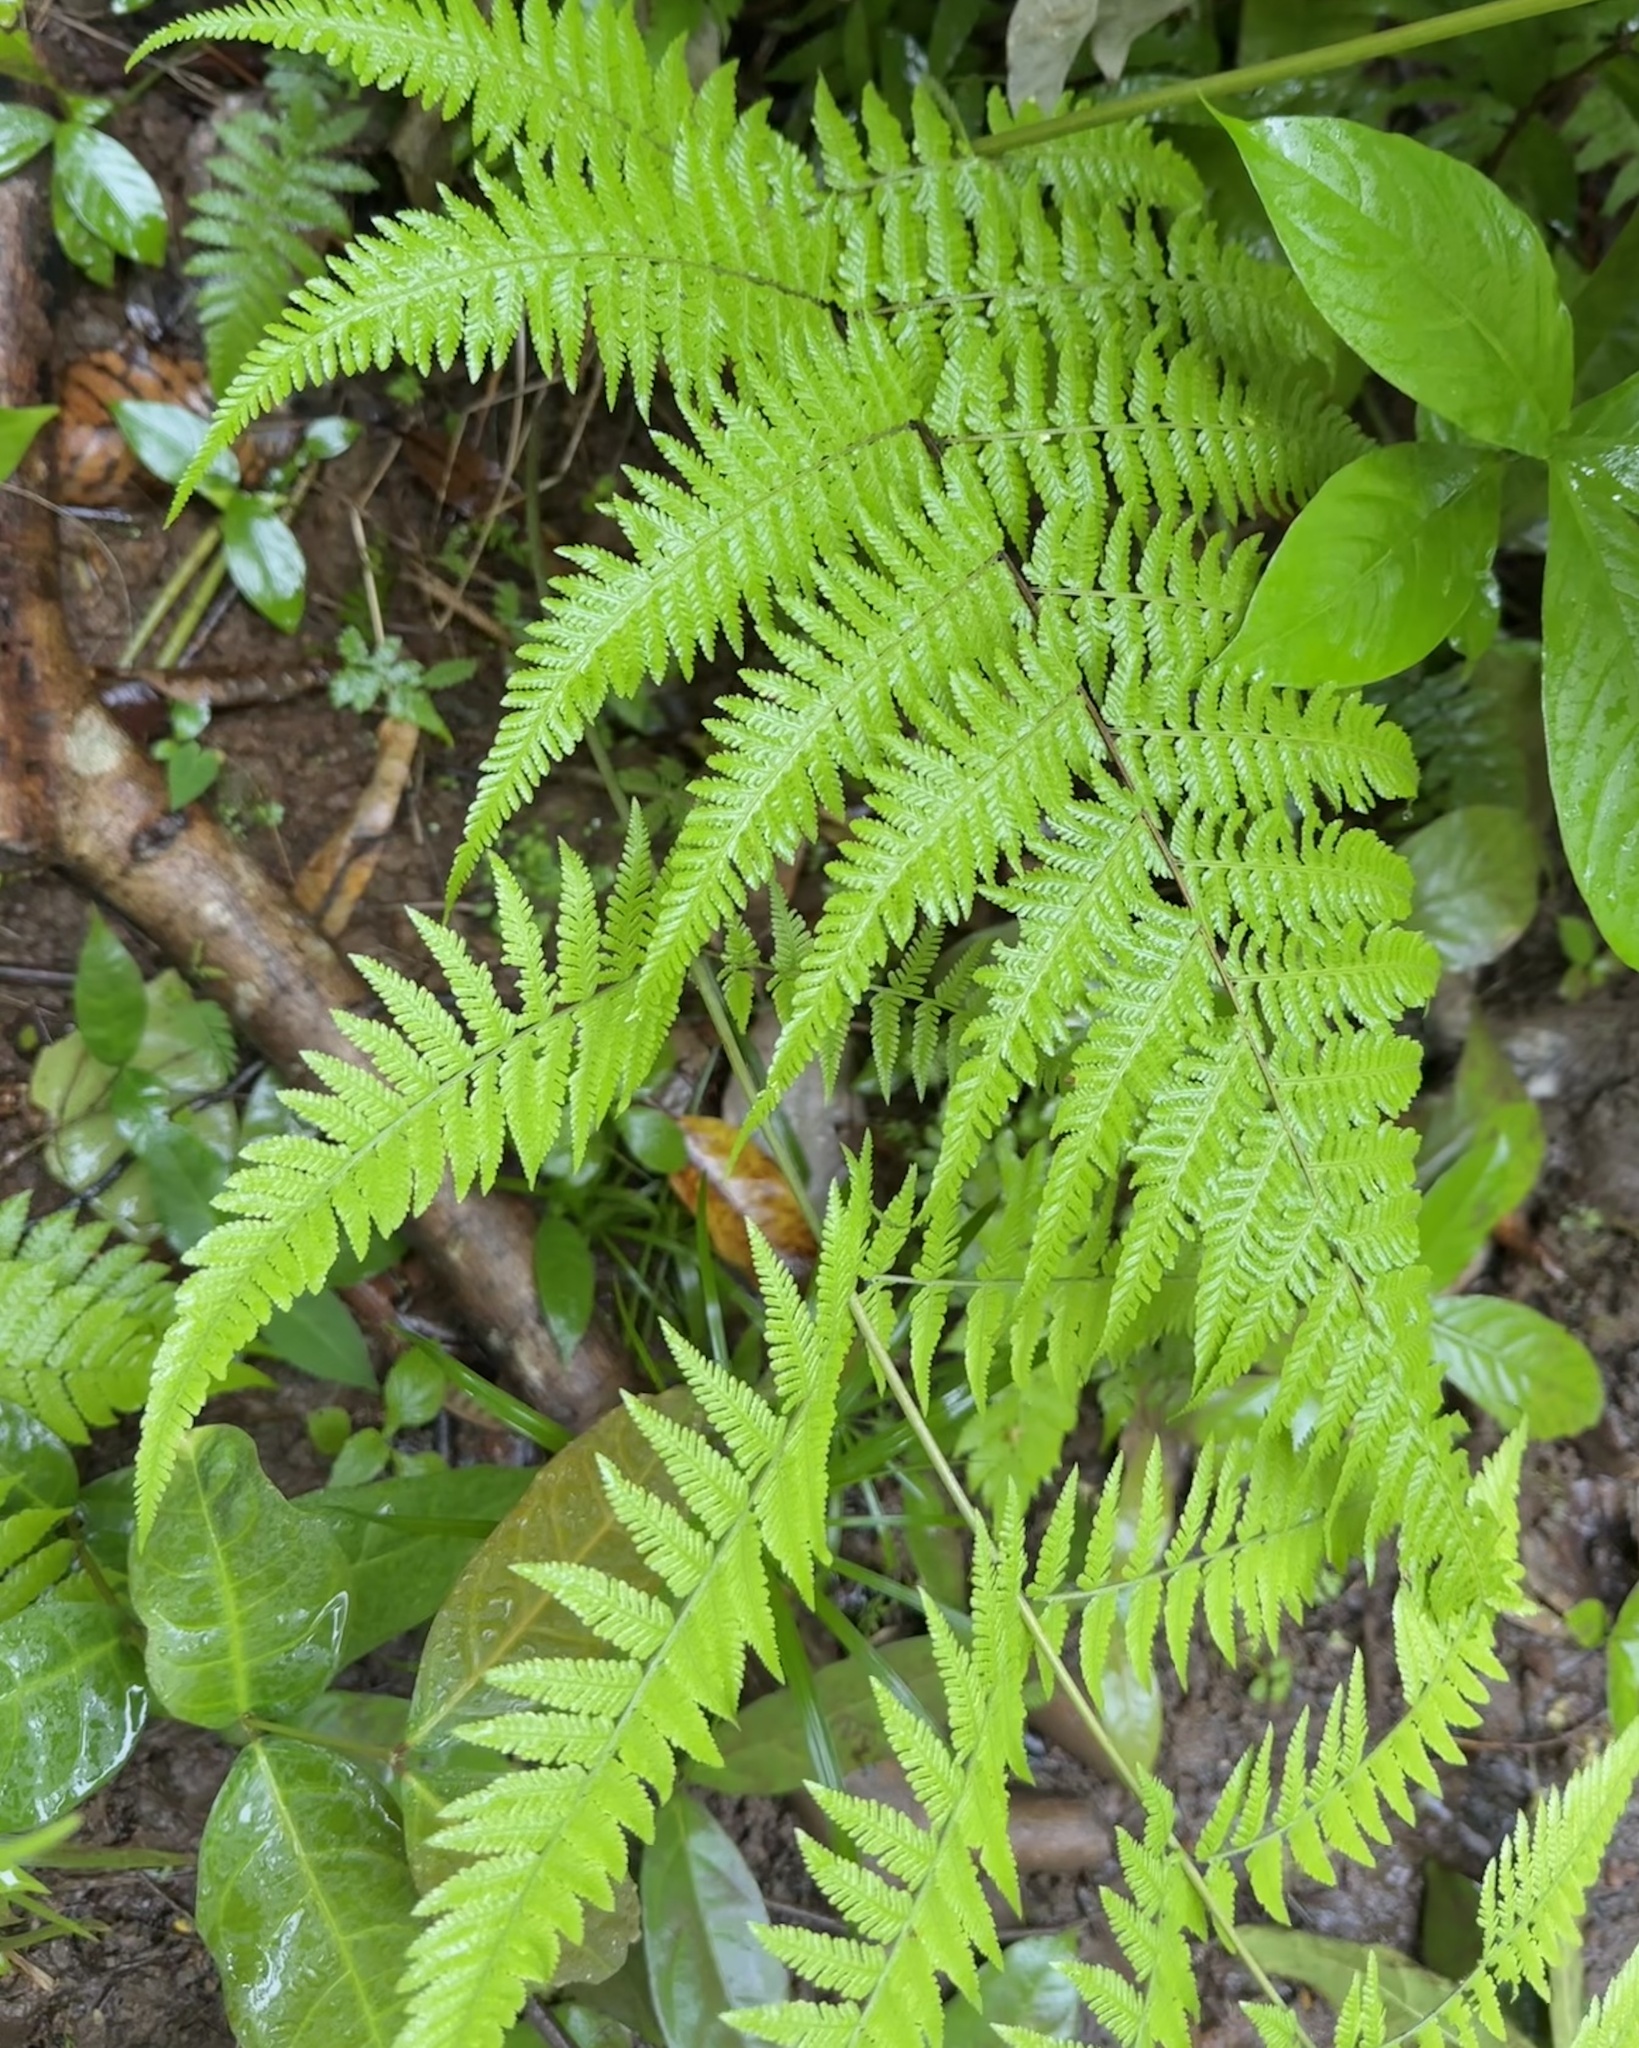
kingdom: Plantae
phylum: Tracheophyta
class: Polypodiopsida
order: Polypodiales
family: Thelypteridaceae
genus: Macrothelypteris
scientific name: Macrothelypteris torresiana
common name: Swordfern
